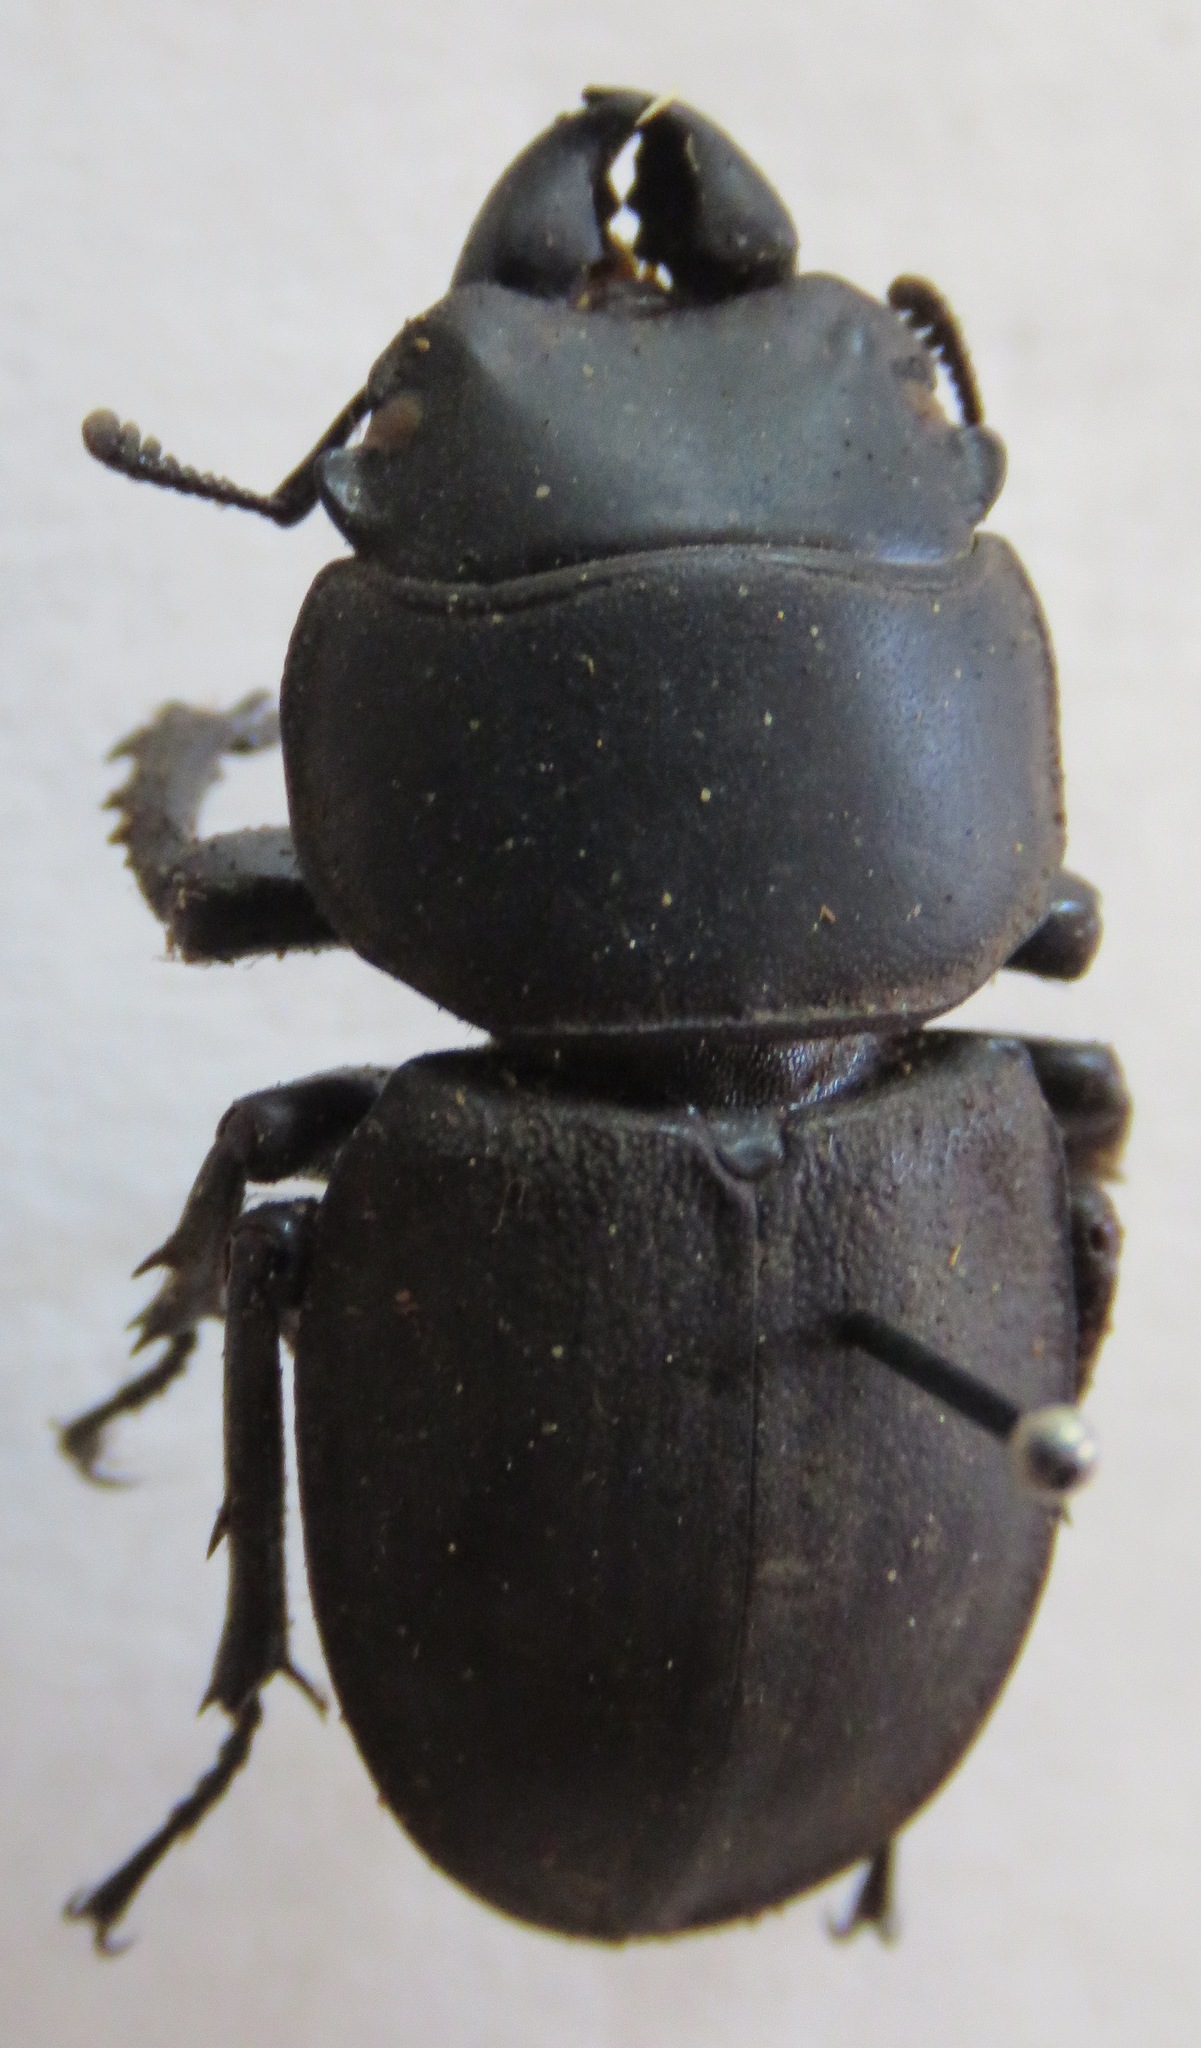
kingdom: Animalia
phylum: Arthropoda
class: Insecta
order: Coleoptera
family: Lucanidae
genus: Apterodorcus
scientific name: Apterodorcus bacchus
